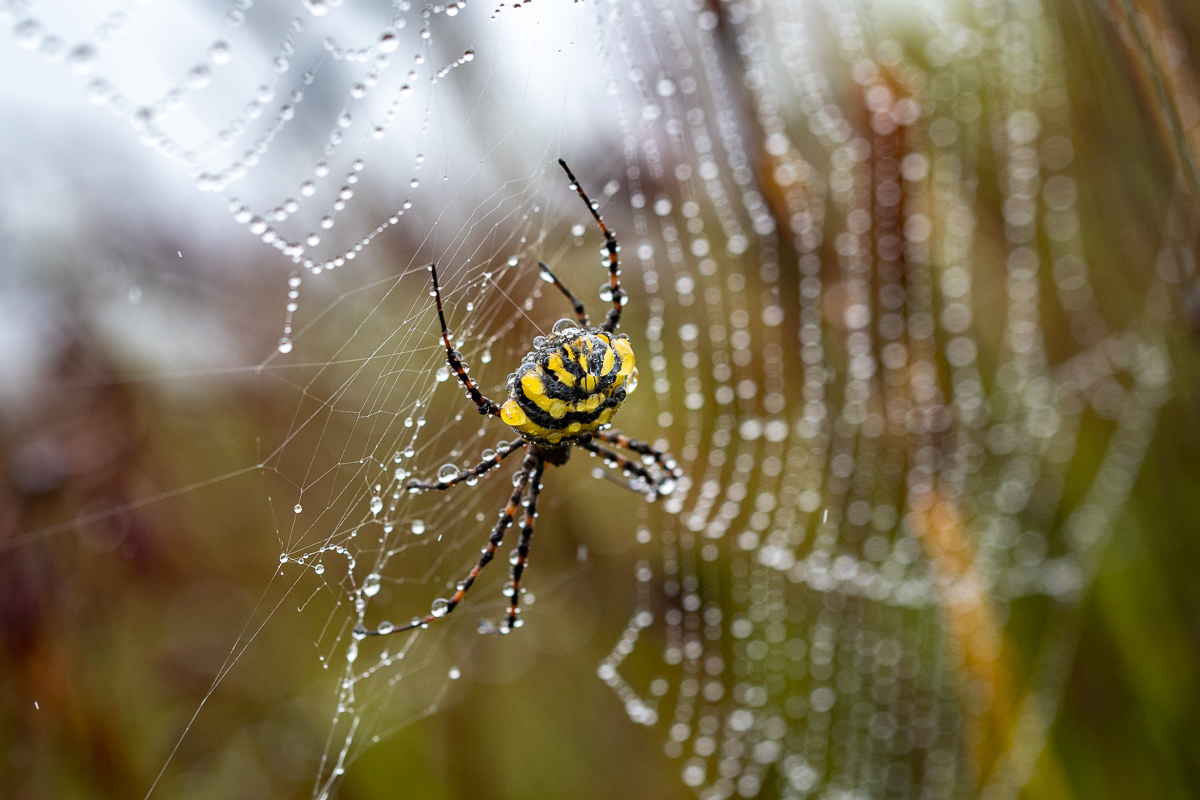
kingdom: Animalia
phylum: Arthropoda
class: Arachnida
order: Araneae
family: Araneidae
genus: Argiope
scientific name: Argiope australis
